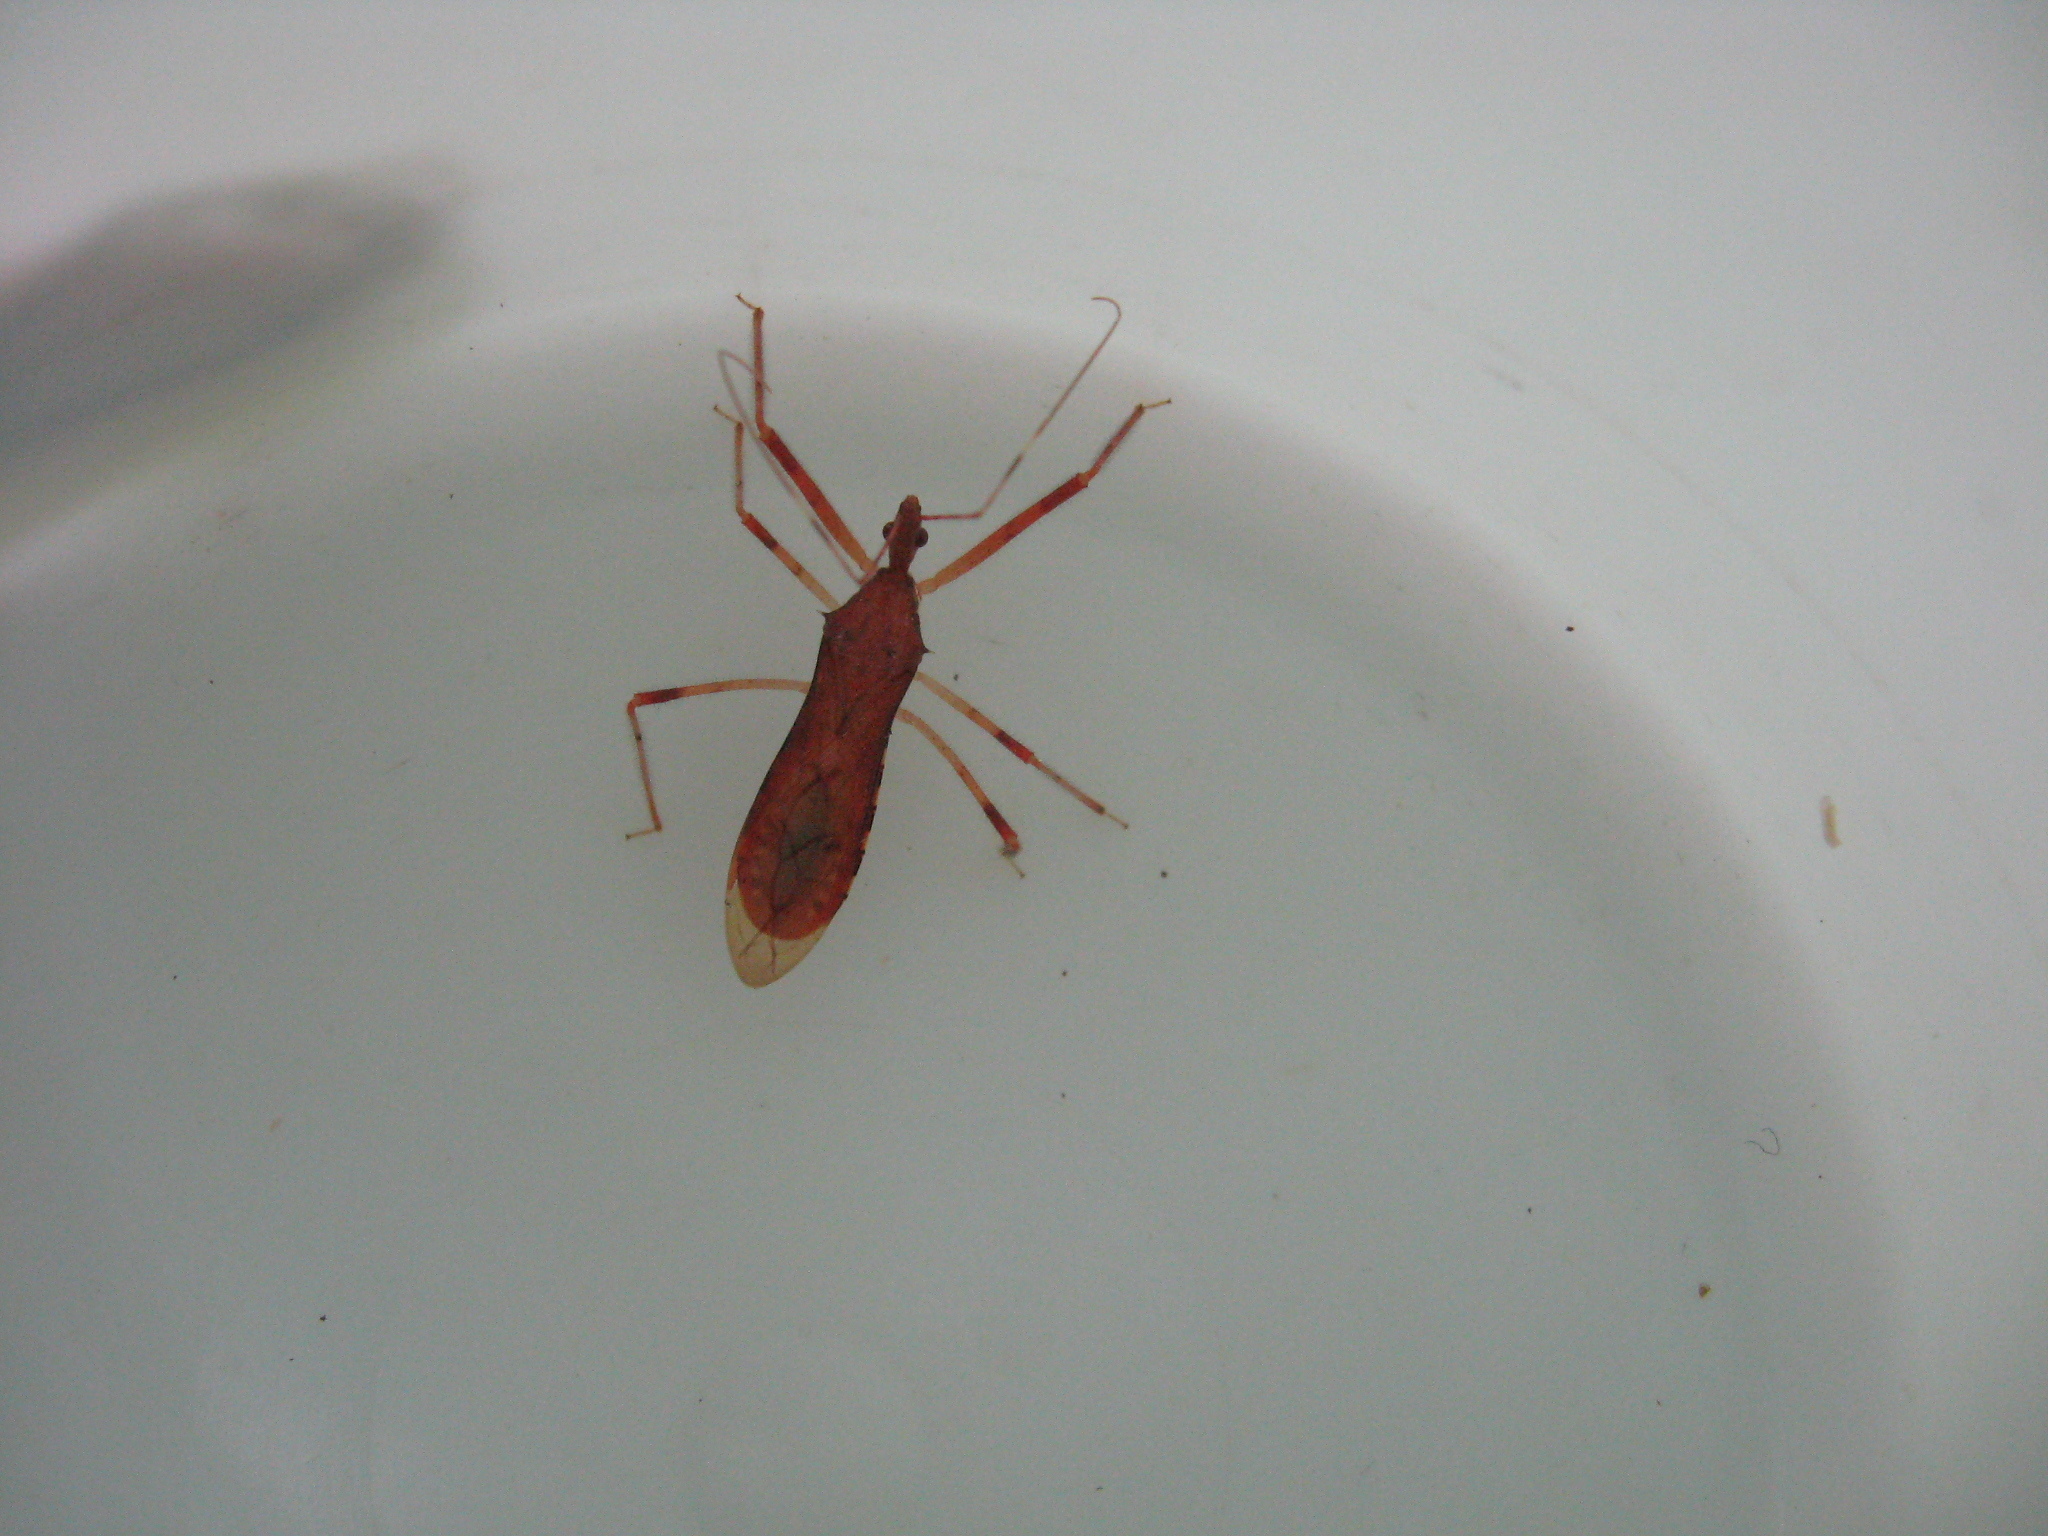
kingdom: Animalia
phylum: Arthropoda
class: Insecta
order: Hemiptera
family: Reduviidae
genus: Rocconota
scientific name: Rocconota annulicornis
